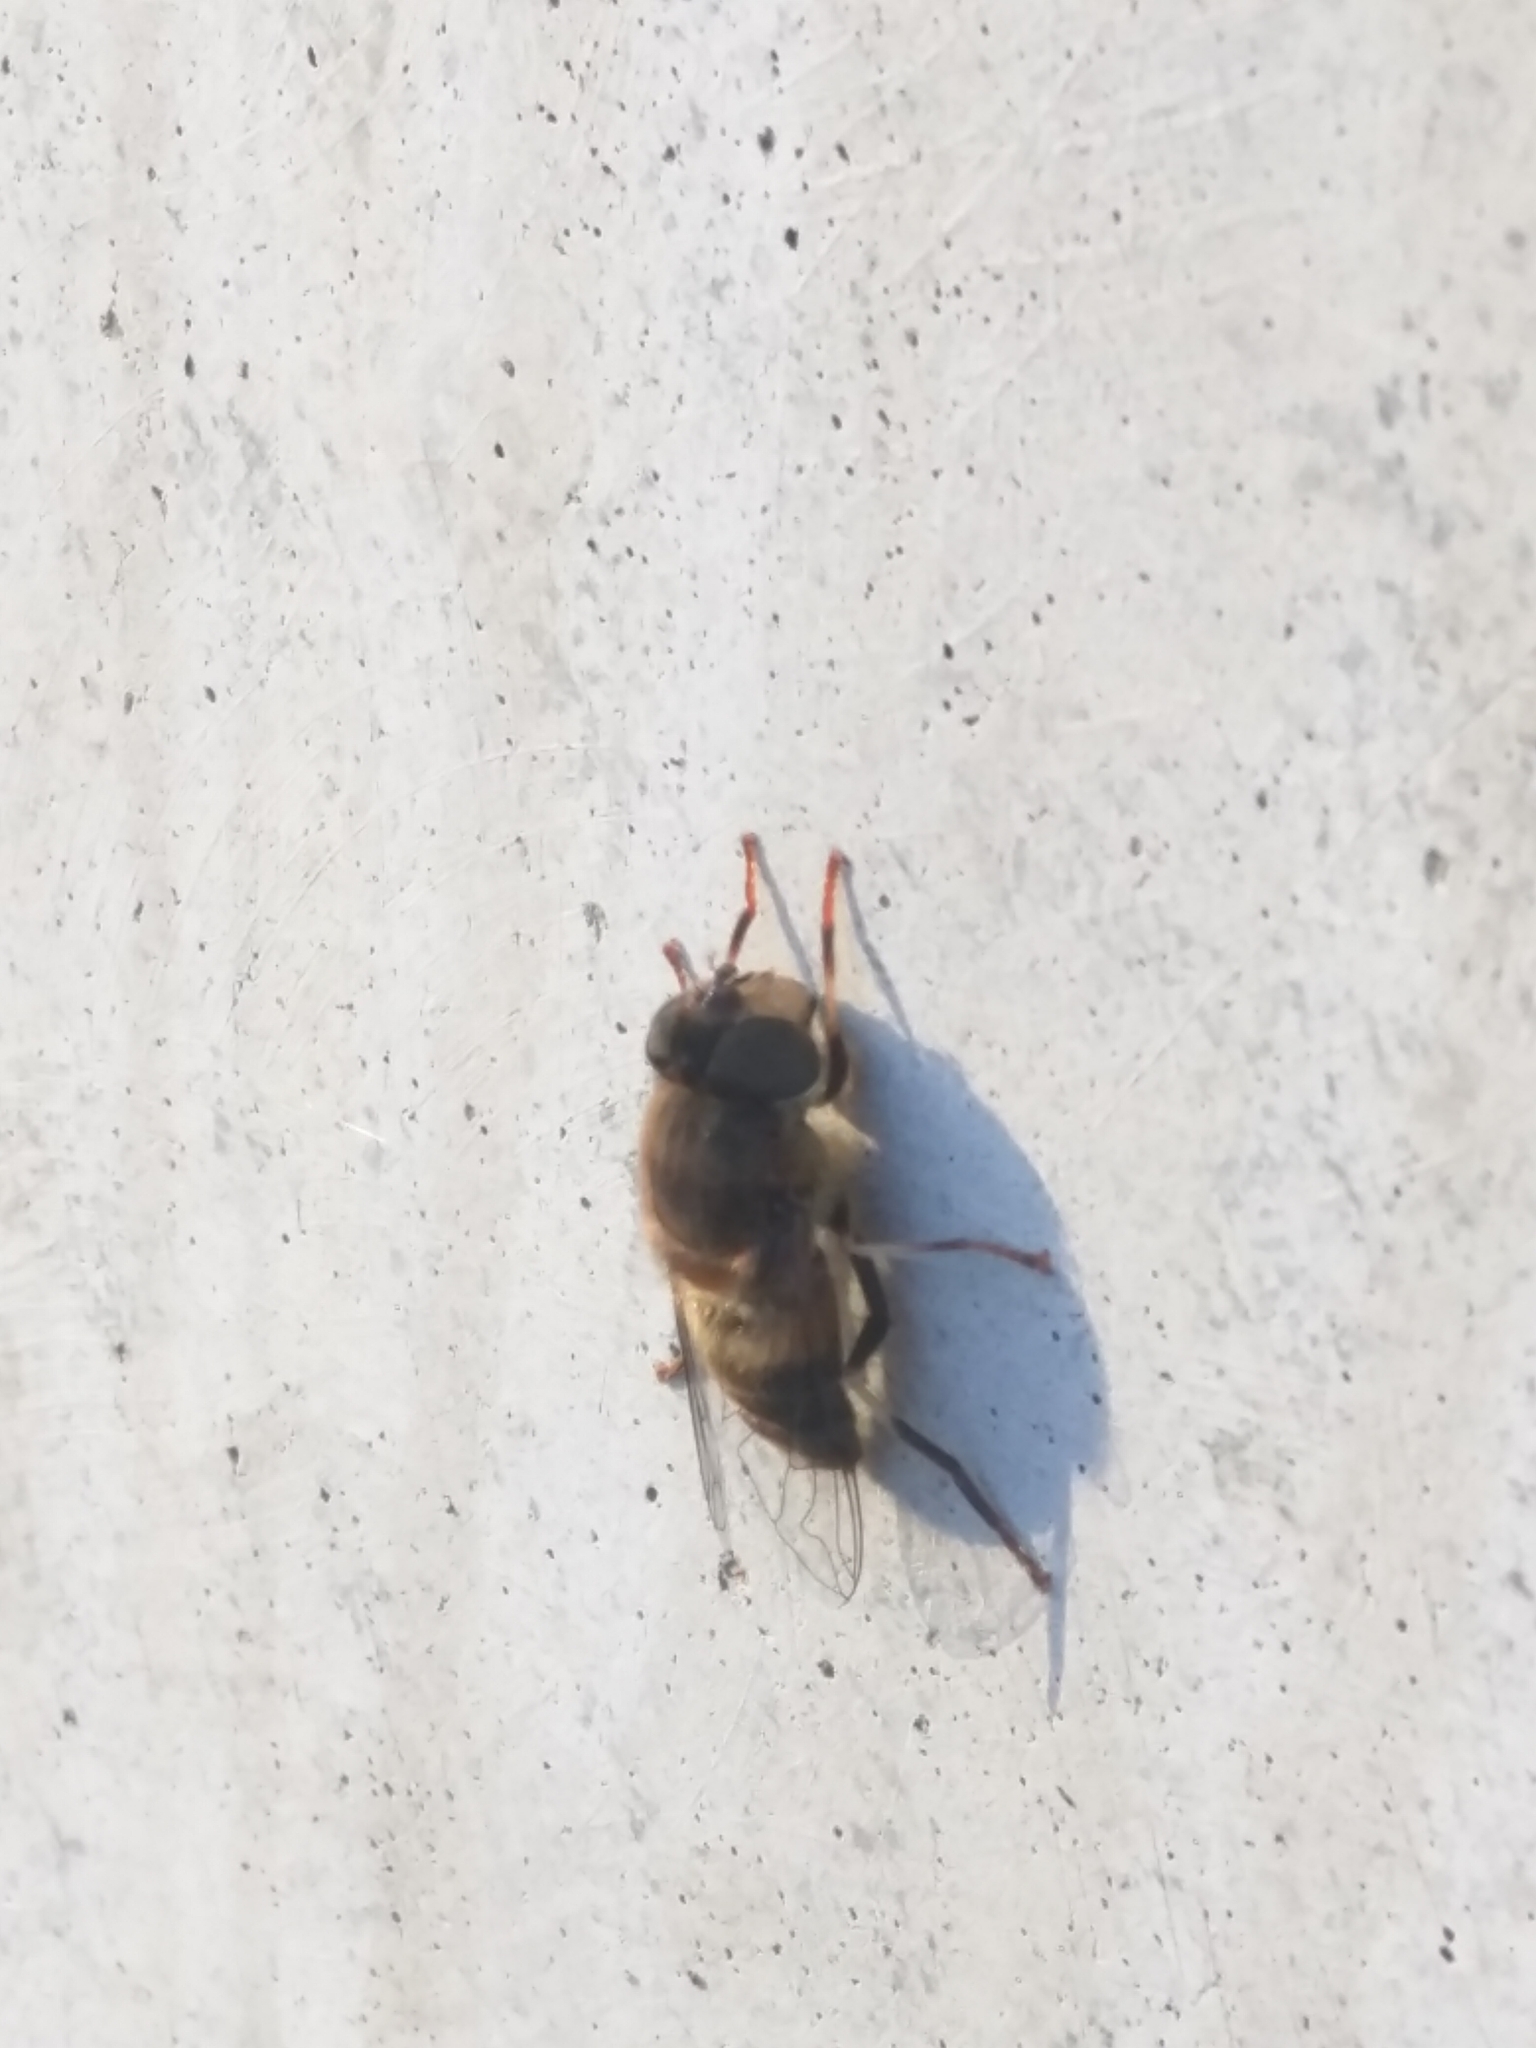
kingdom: Animalia
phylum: Arthropoda
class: Insecta
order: Diptera
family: Syrphidae
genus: Eristalis
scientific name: Eristalis pertinax
